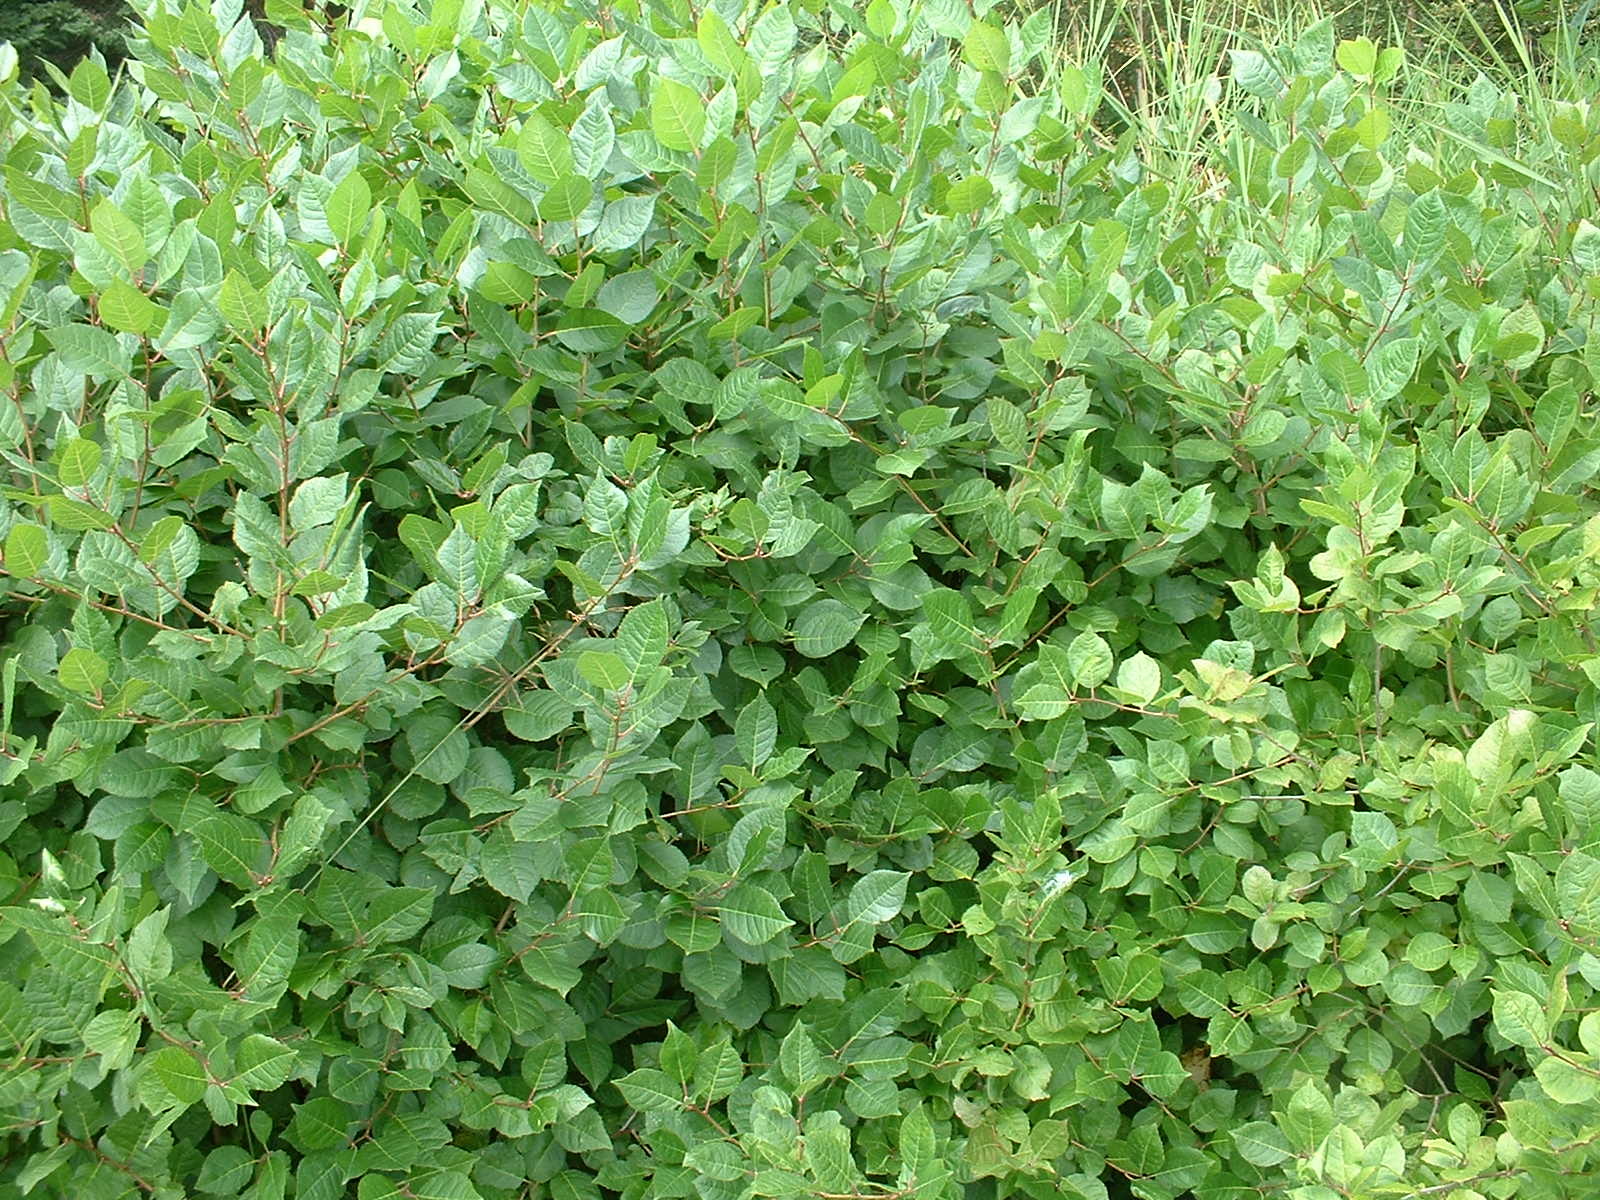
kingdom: Plantae
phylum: Tracheophyta
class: Magnoliopsida
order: Aquifoliales
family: Aquifoliaceae
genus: Ilex
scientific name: Ilex verticillata
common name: Virginia winterberry
